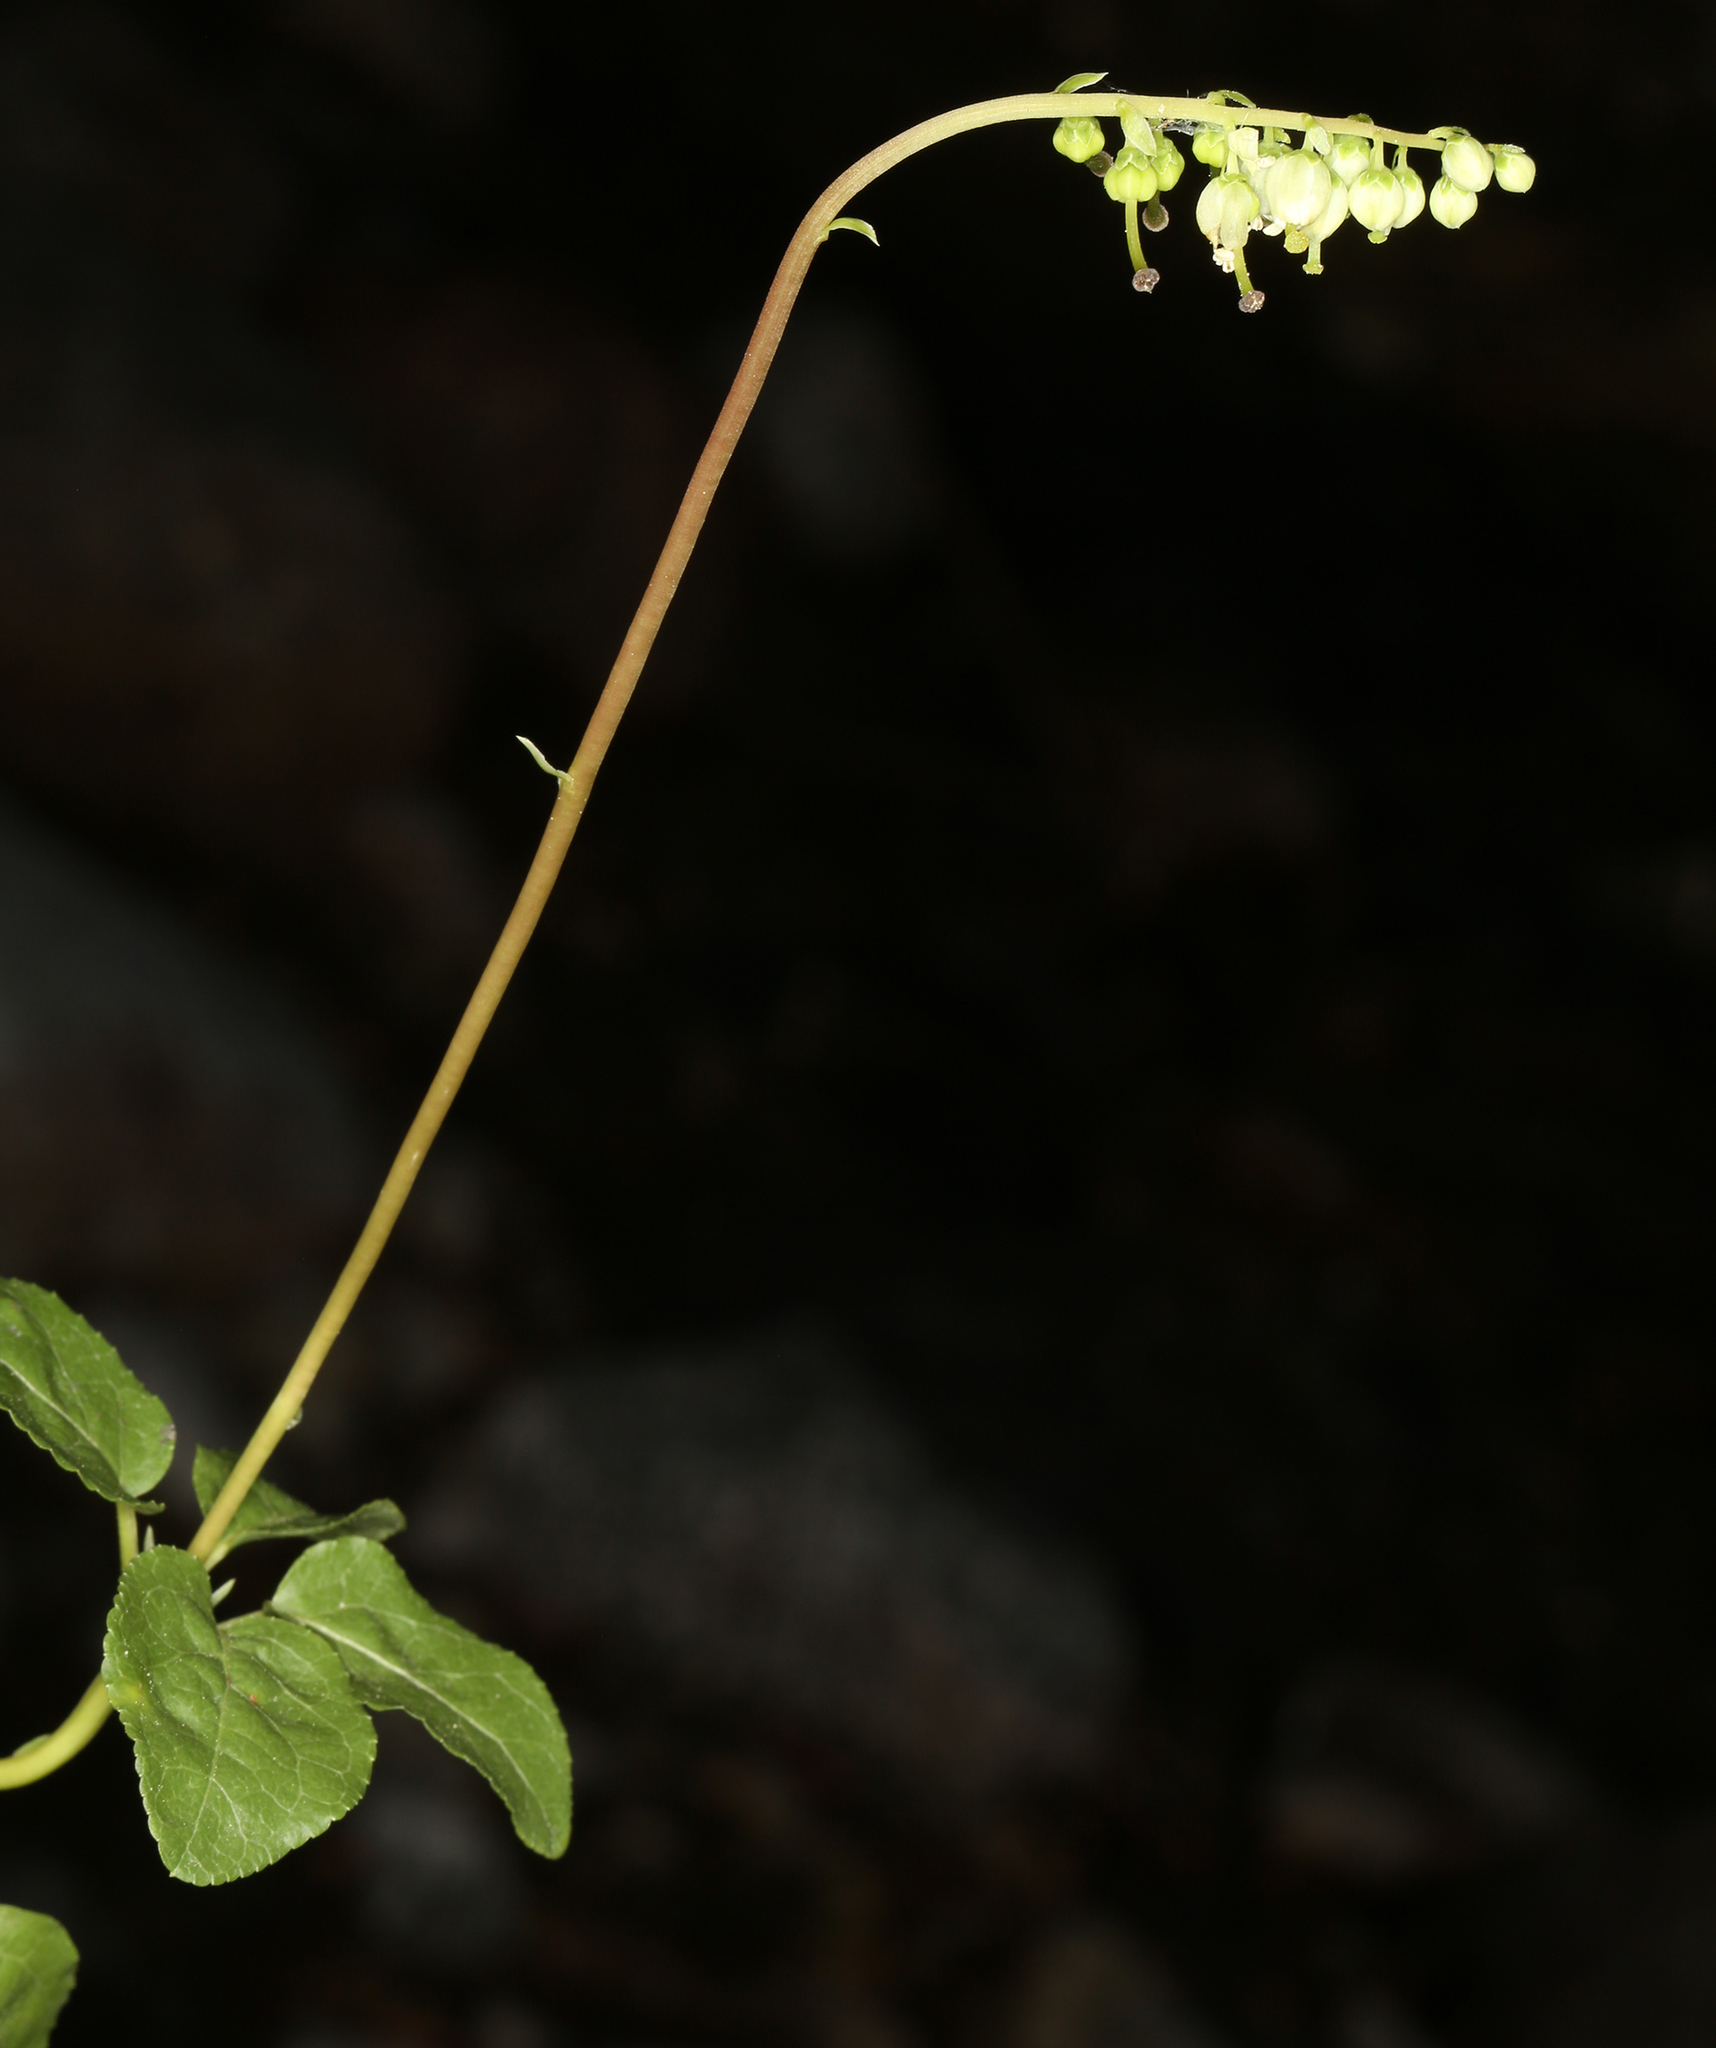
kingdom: Plantae
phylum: Tracheophyta
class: Magnoliopsida
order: Ericales
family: Ericaceae
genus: Orthilia
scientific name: Orthilia secunda
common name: One-sided orthilia
